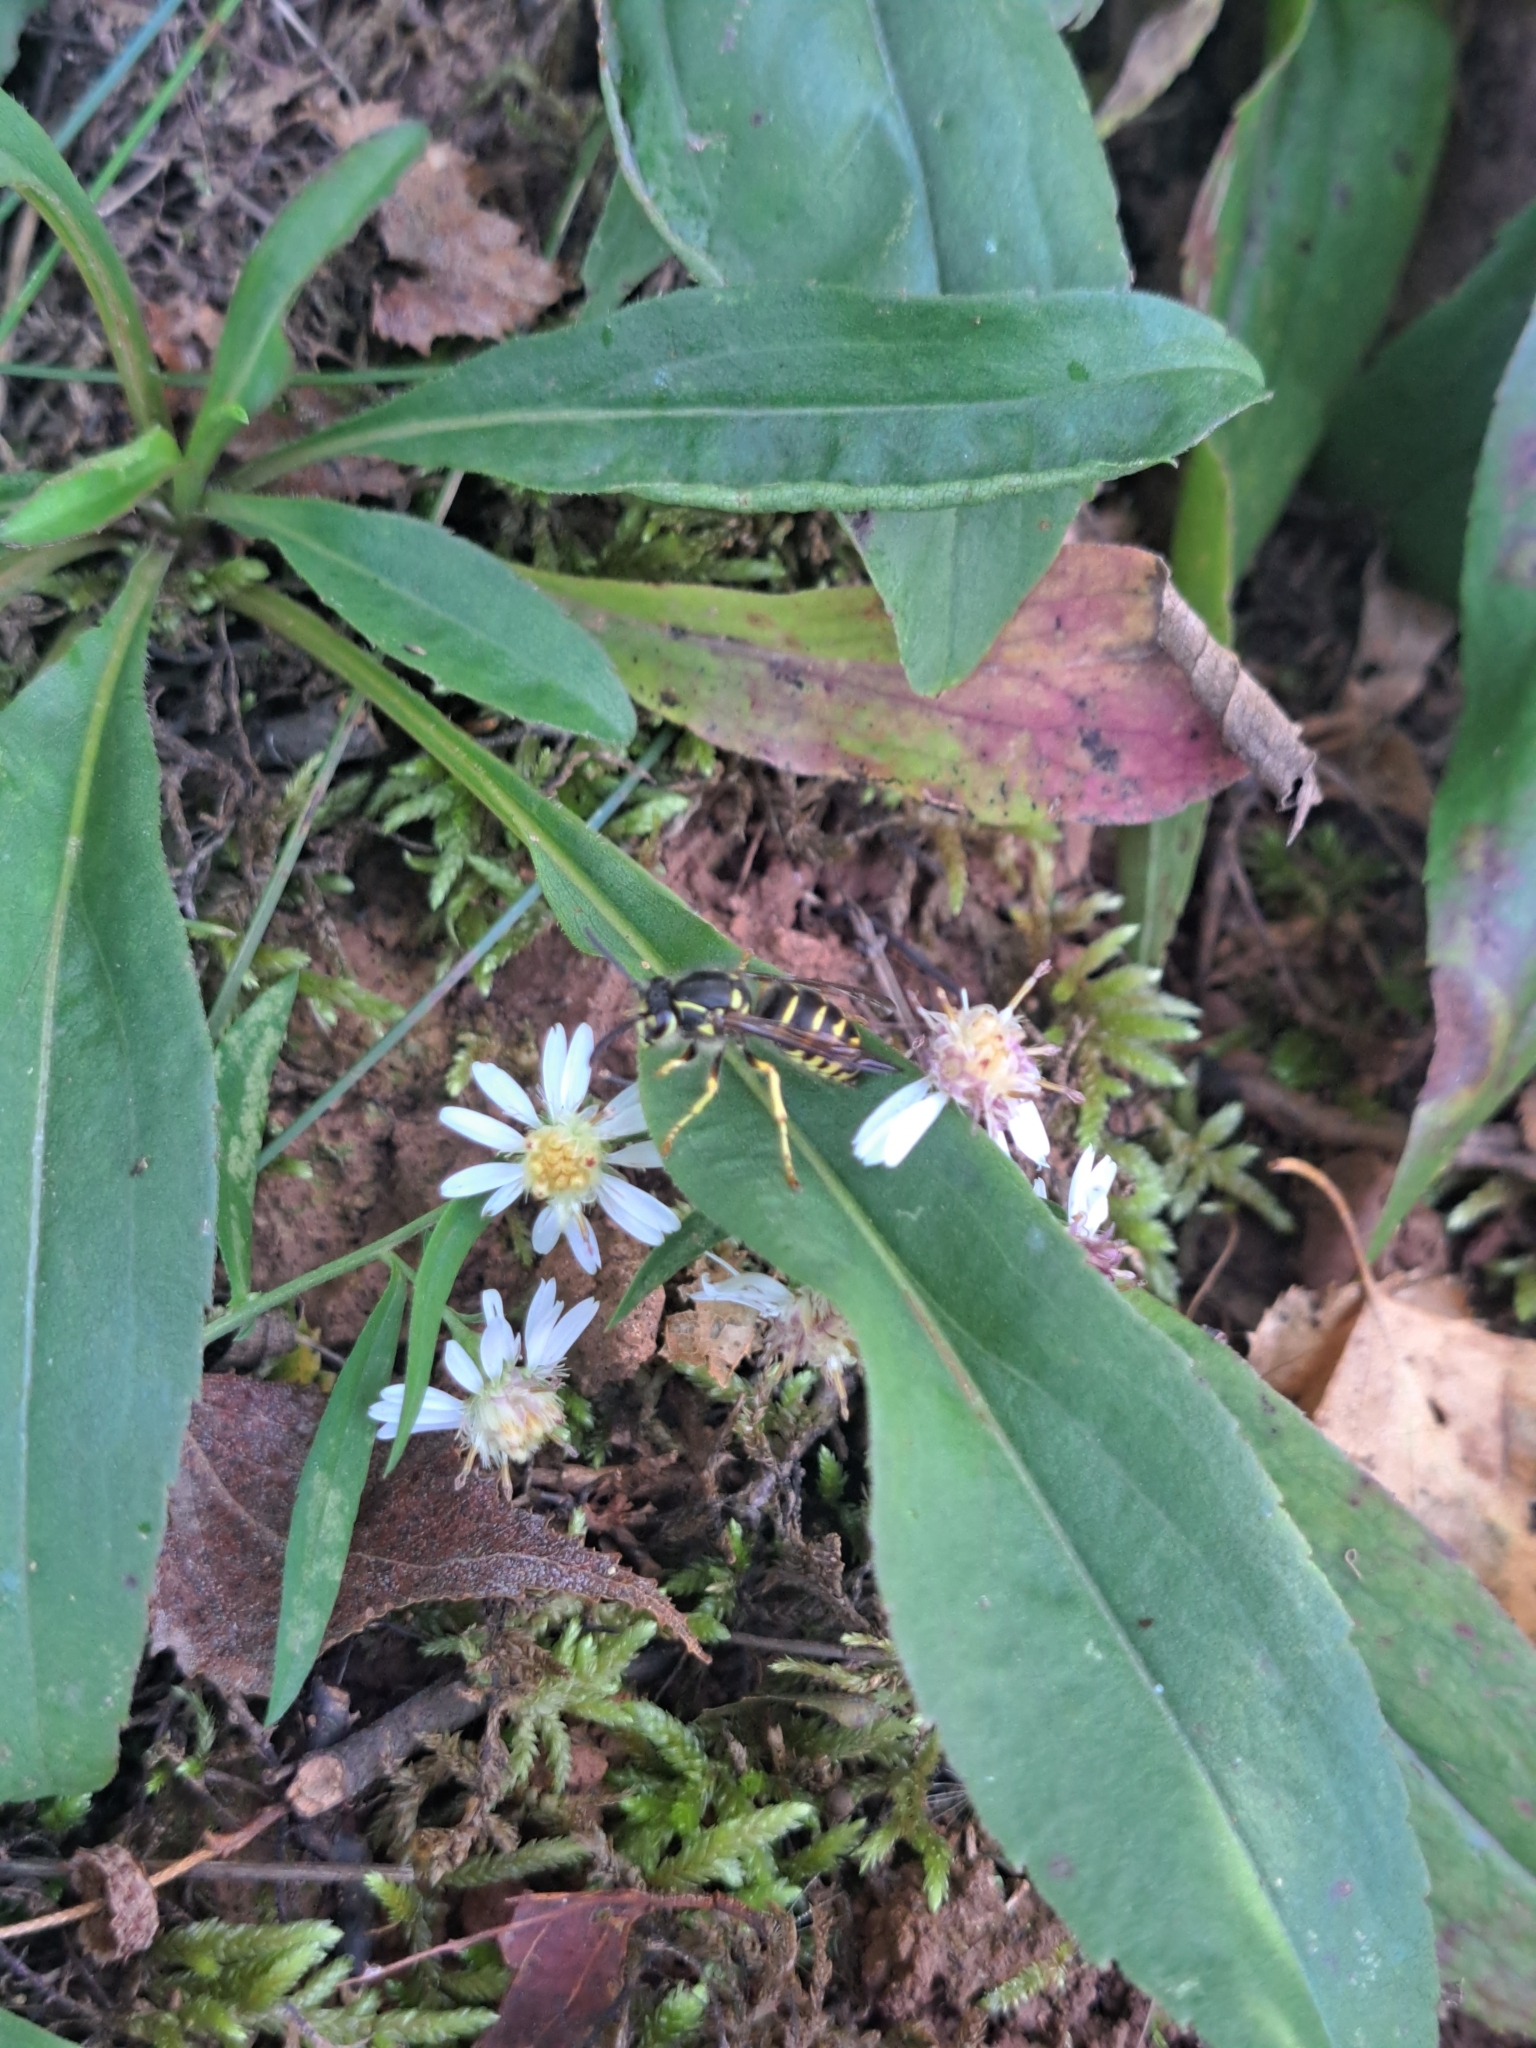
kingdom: Animalia
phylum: Arthropoda
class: Insecta
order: Hymenoptera
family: Vespidae
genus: Dolichovespula
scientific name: Dolichovespula arenaria
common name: Aerial yellowjacket
